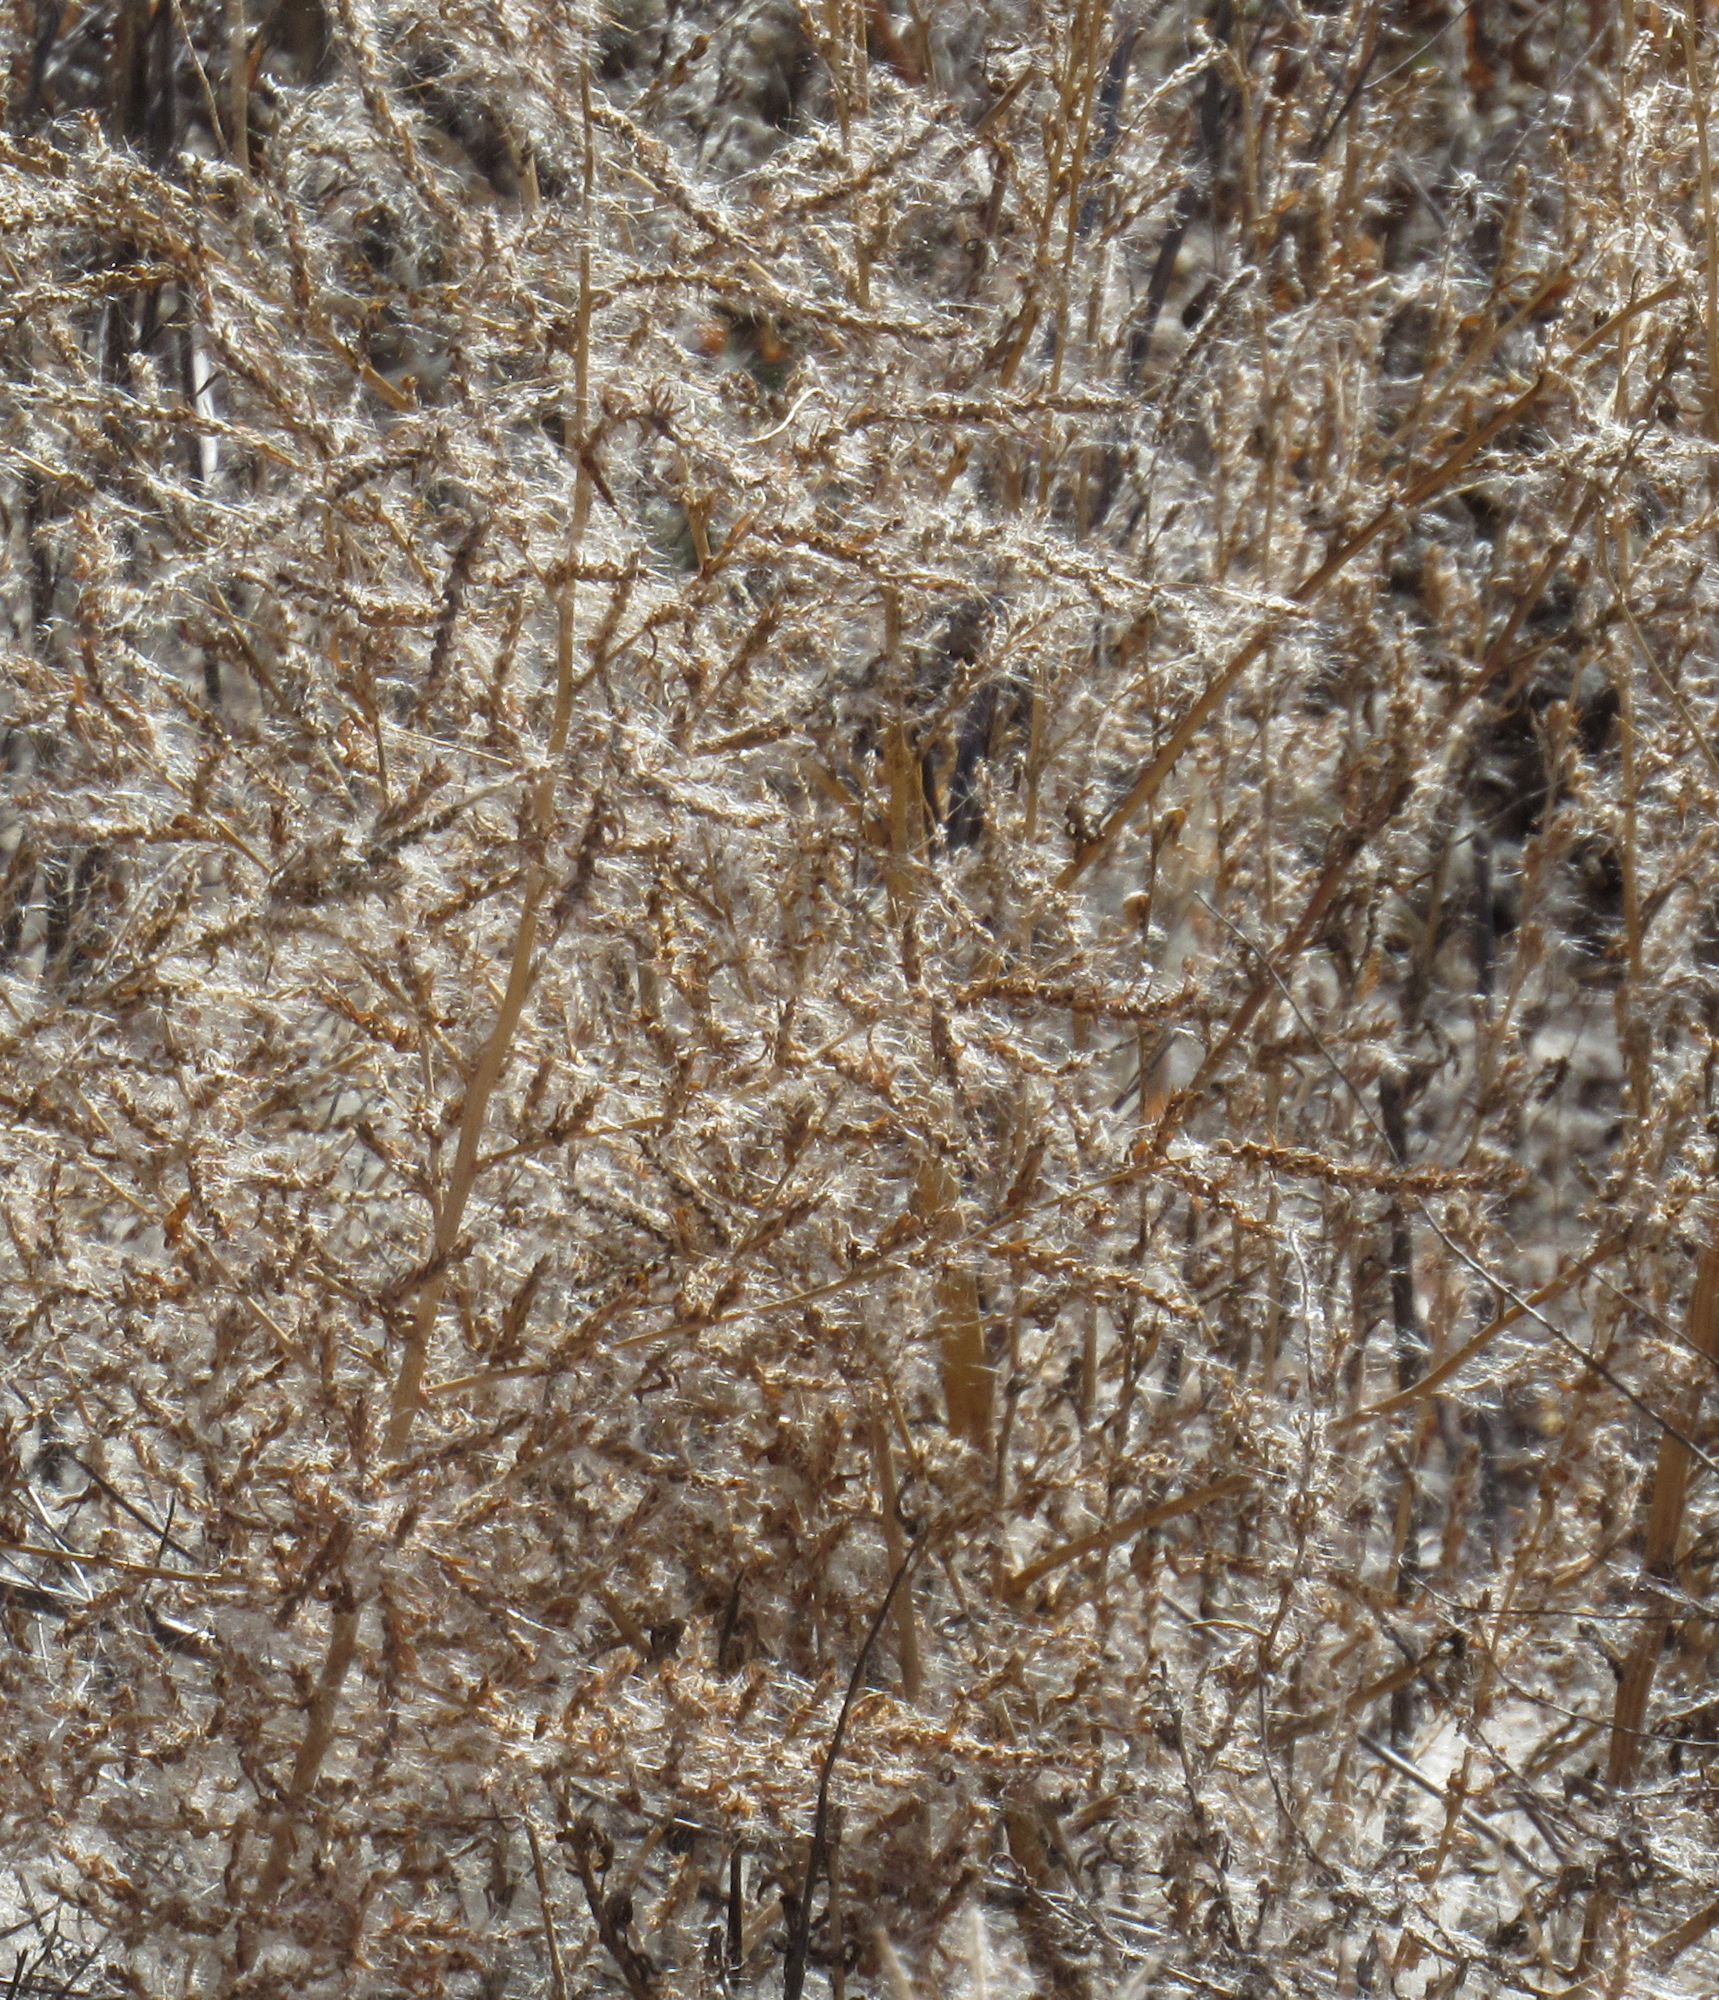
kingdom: Plantae
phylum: Tracheophyta
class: Magnoliopsida
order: Caryophyllales
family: Amaranthaceae
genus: Bassia
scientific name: Bassia scoparia
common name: Belvedere
